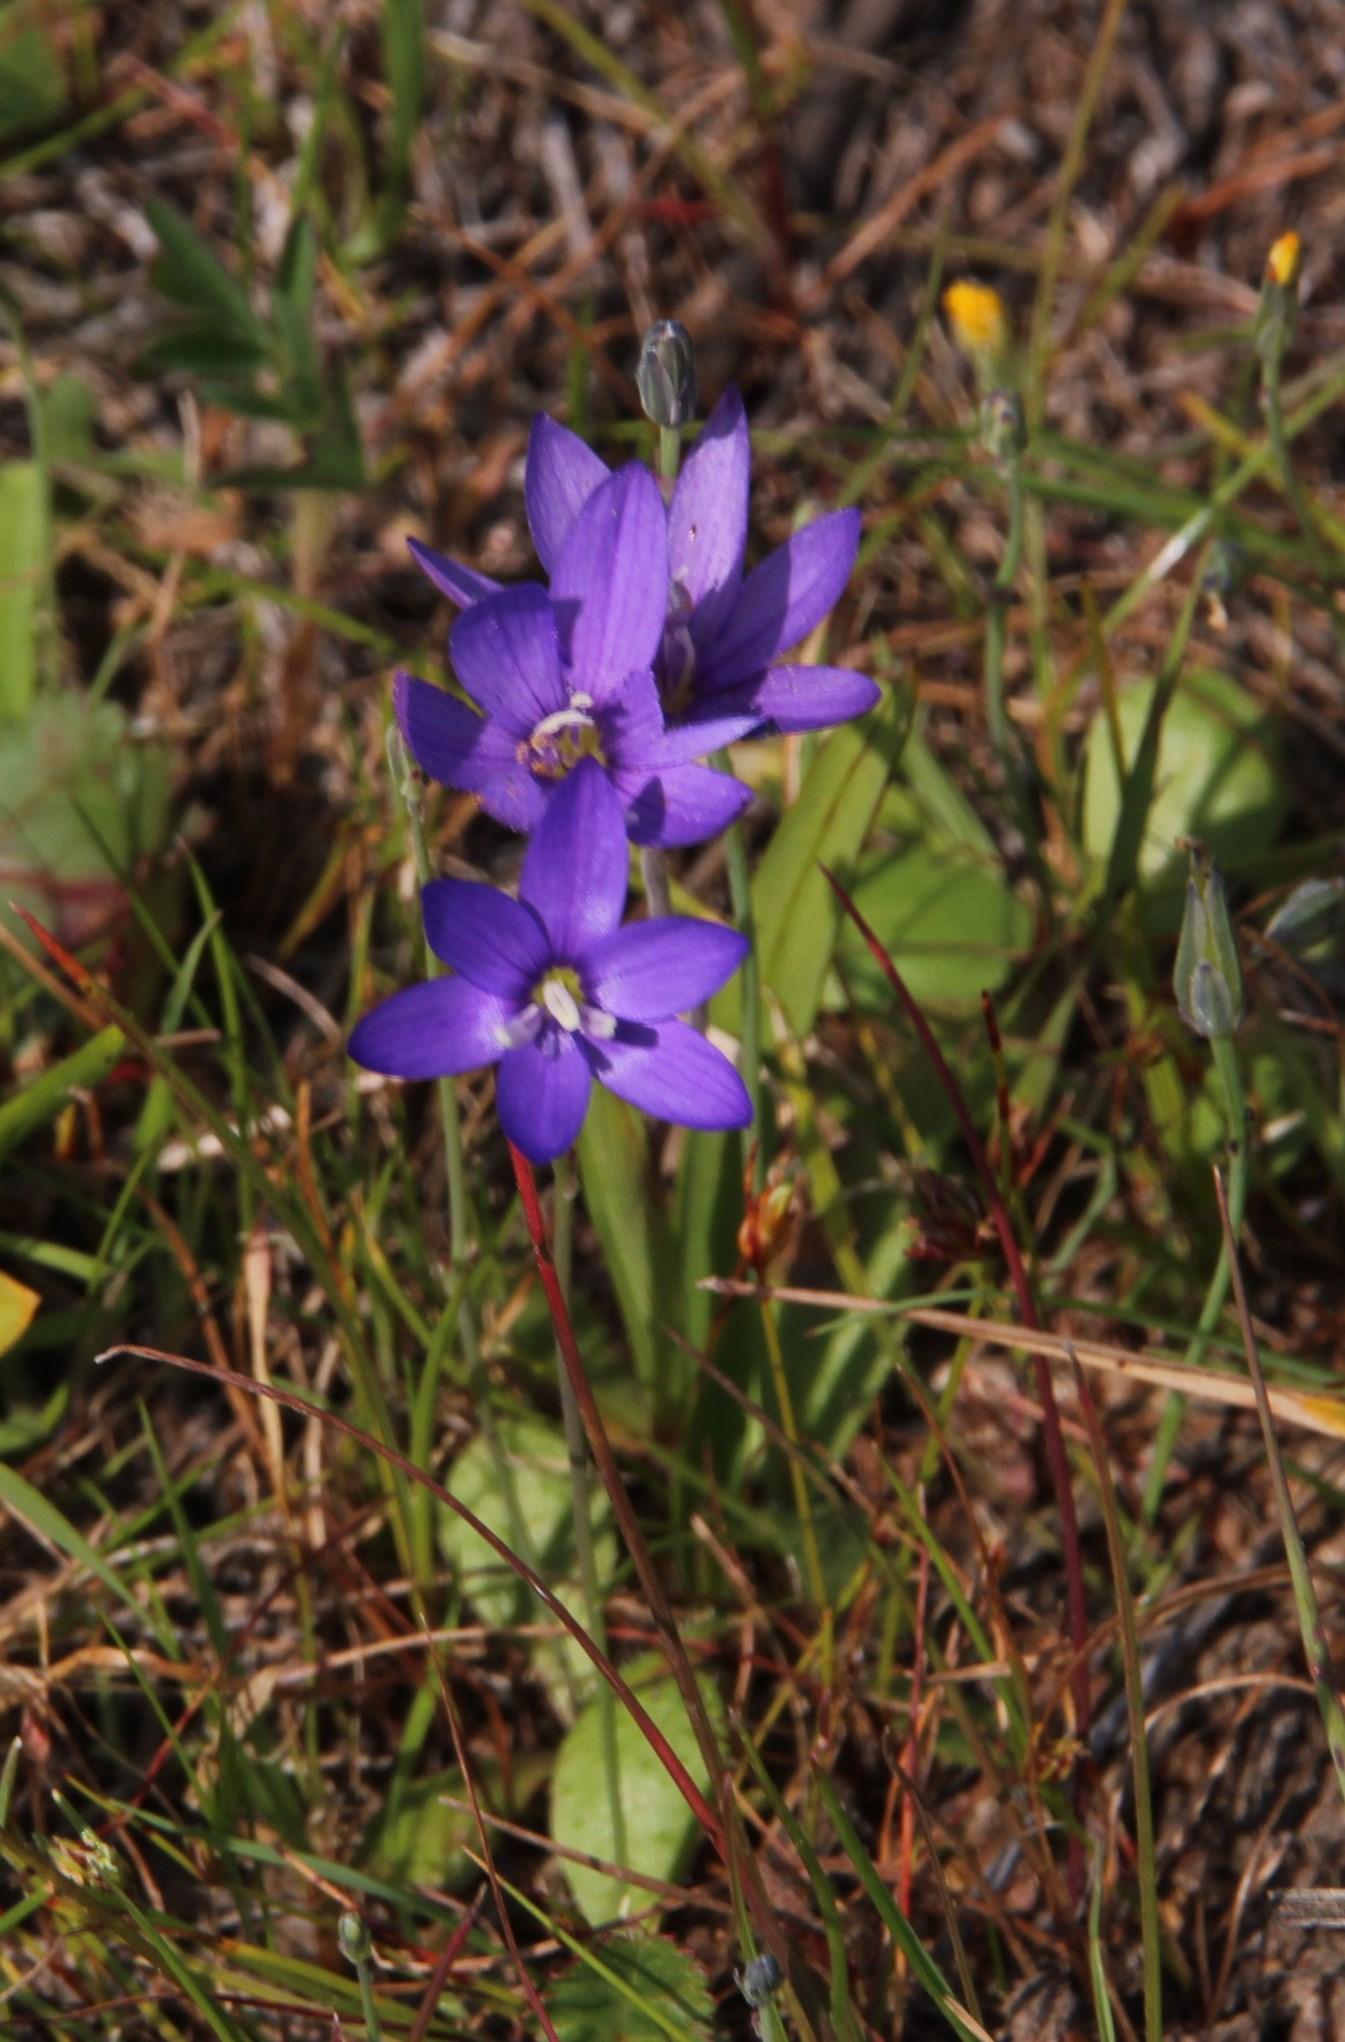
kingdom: Plantae
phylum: Tracheophyta
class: Liliopsida
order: Asparagales
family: Iridaceae
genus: Geissorhiza
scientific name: Geissorhiza aspera
